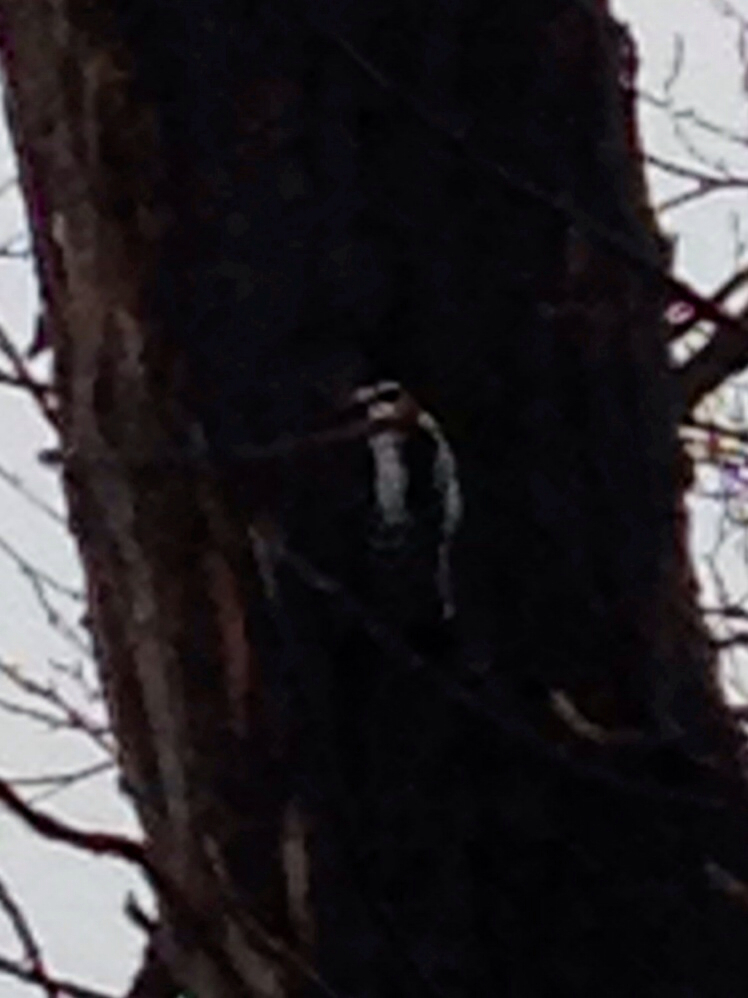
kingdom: Animalia
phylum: Chordata
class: Aves
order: Piciformes
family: Picidae
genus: Dryobates
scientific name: Dryobates pubescens
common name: Downy woodpecker
